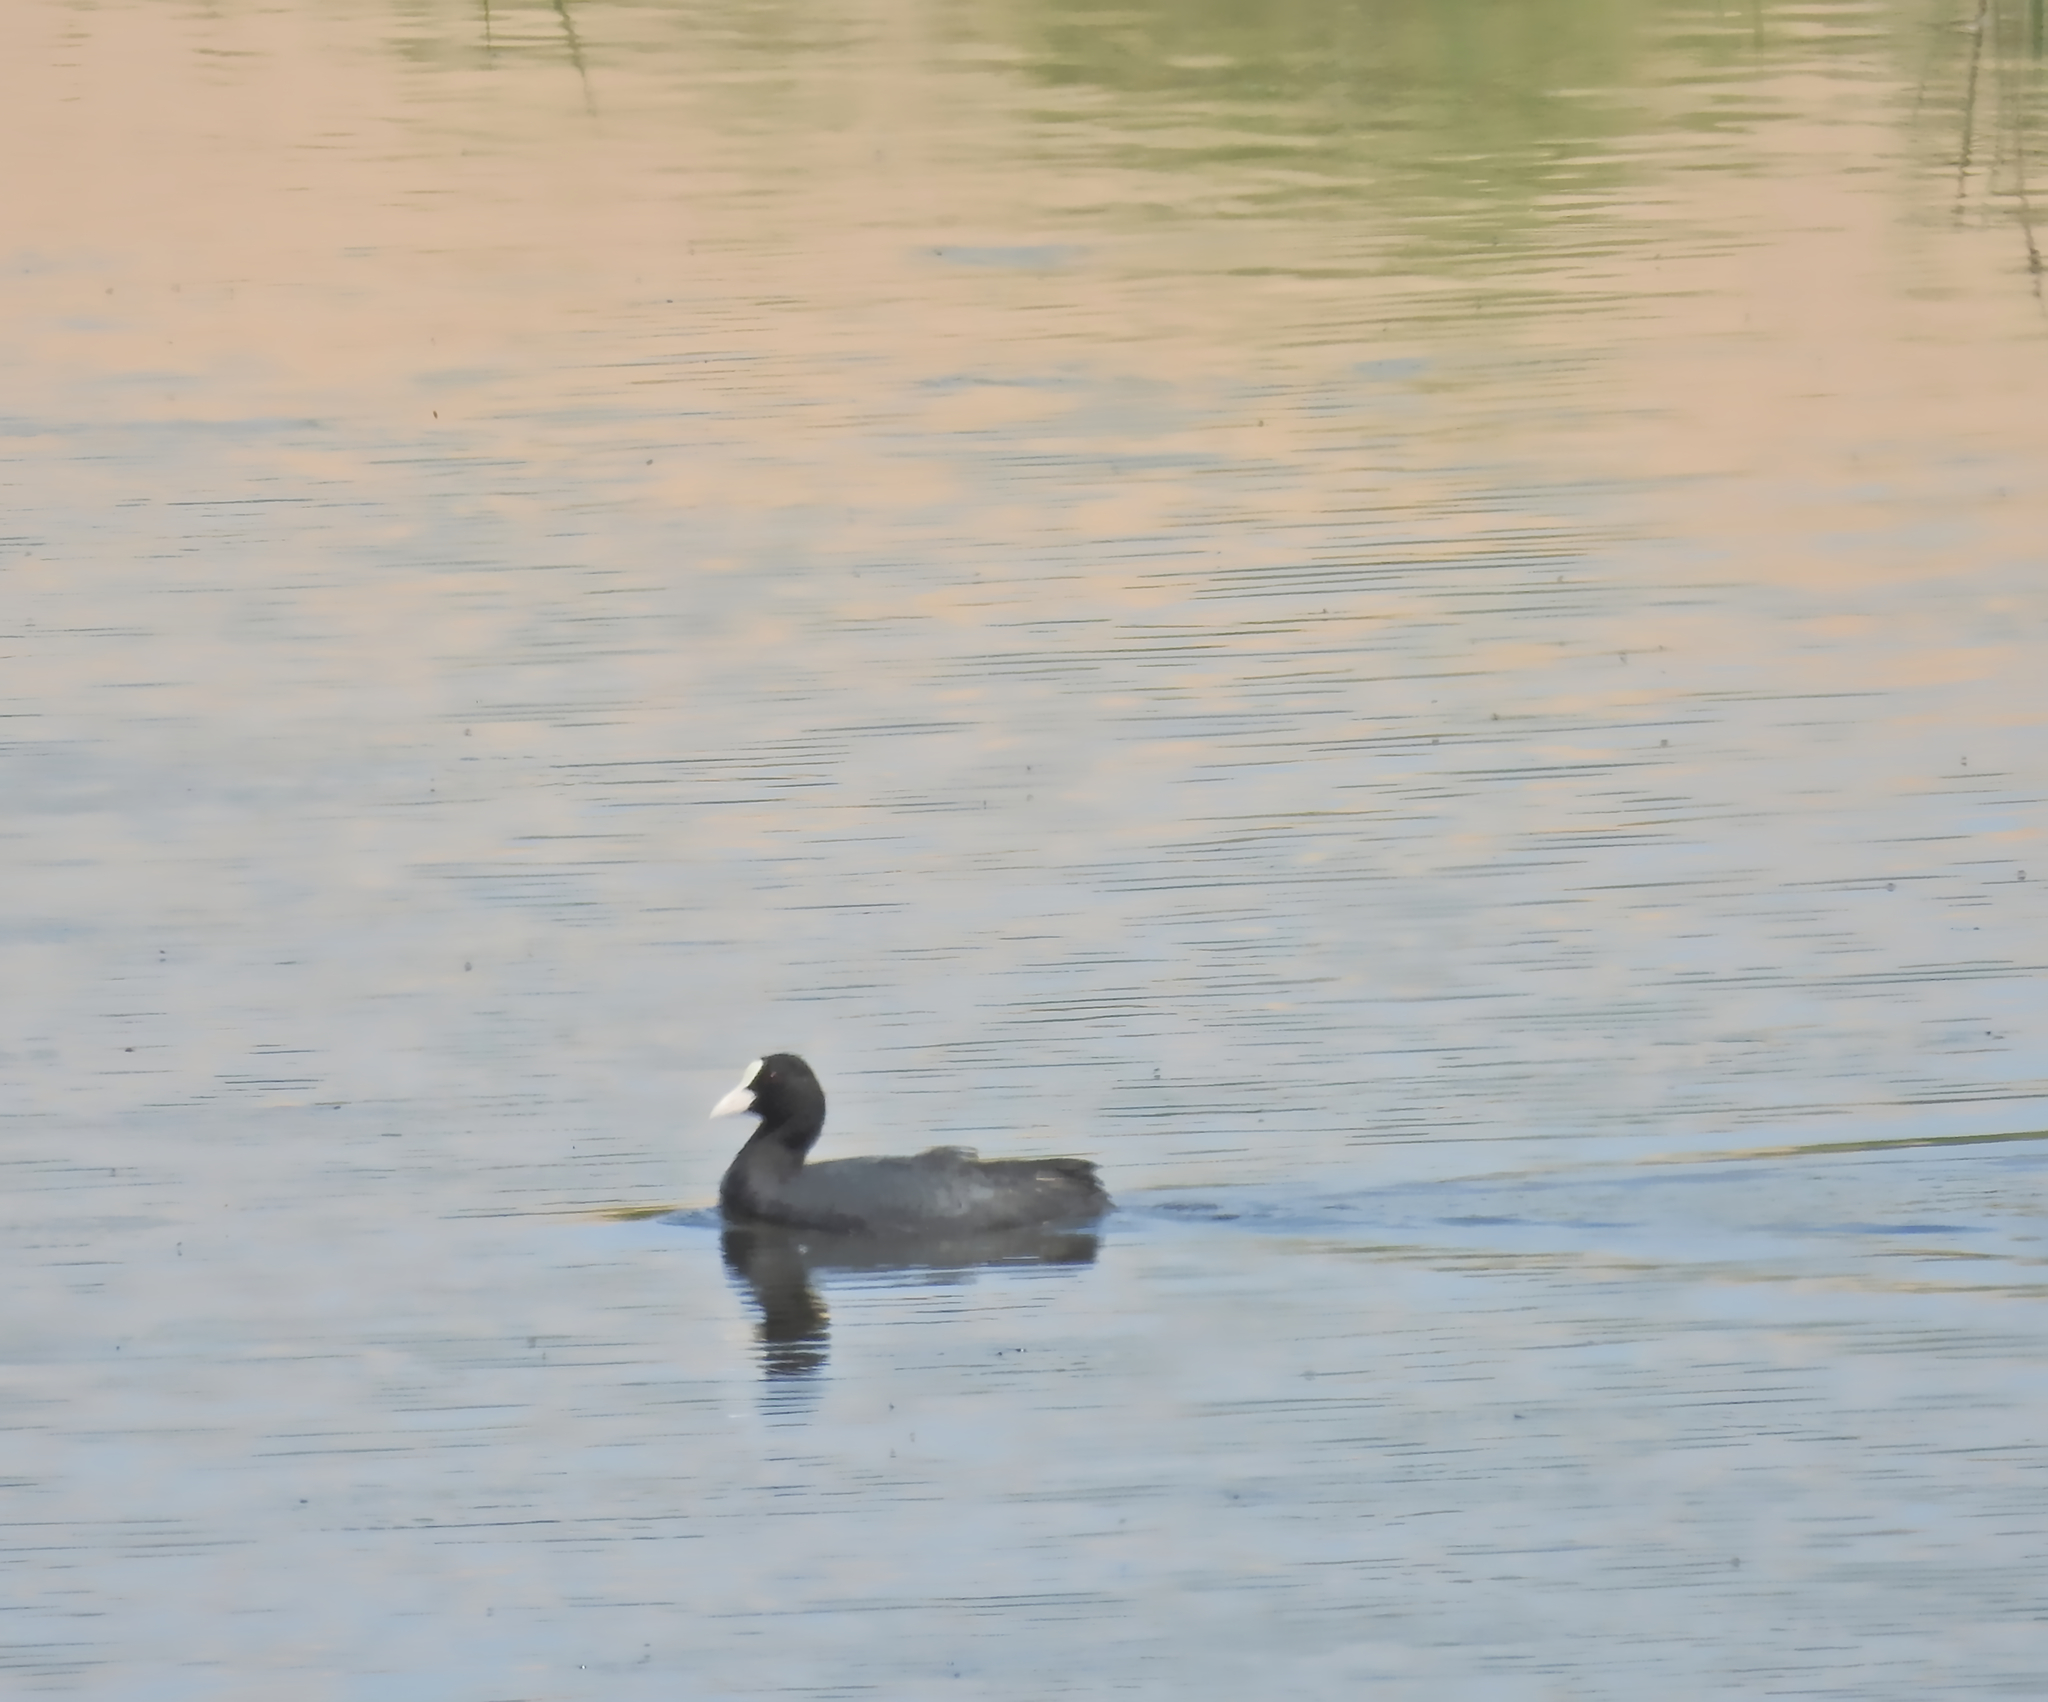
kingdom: Animalia
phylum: Chordata
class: Aves
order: Gruiformes
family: Rallidae
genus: Fulica
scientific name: Fulica atra
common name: Eurasian coot
